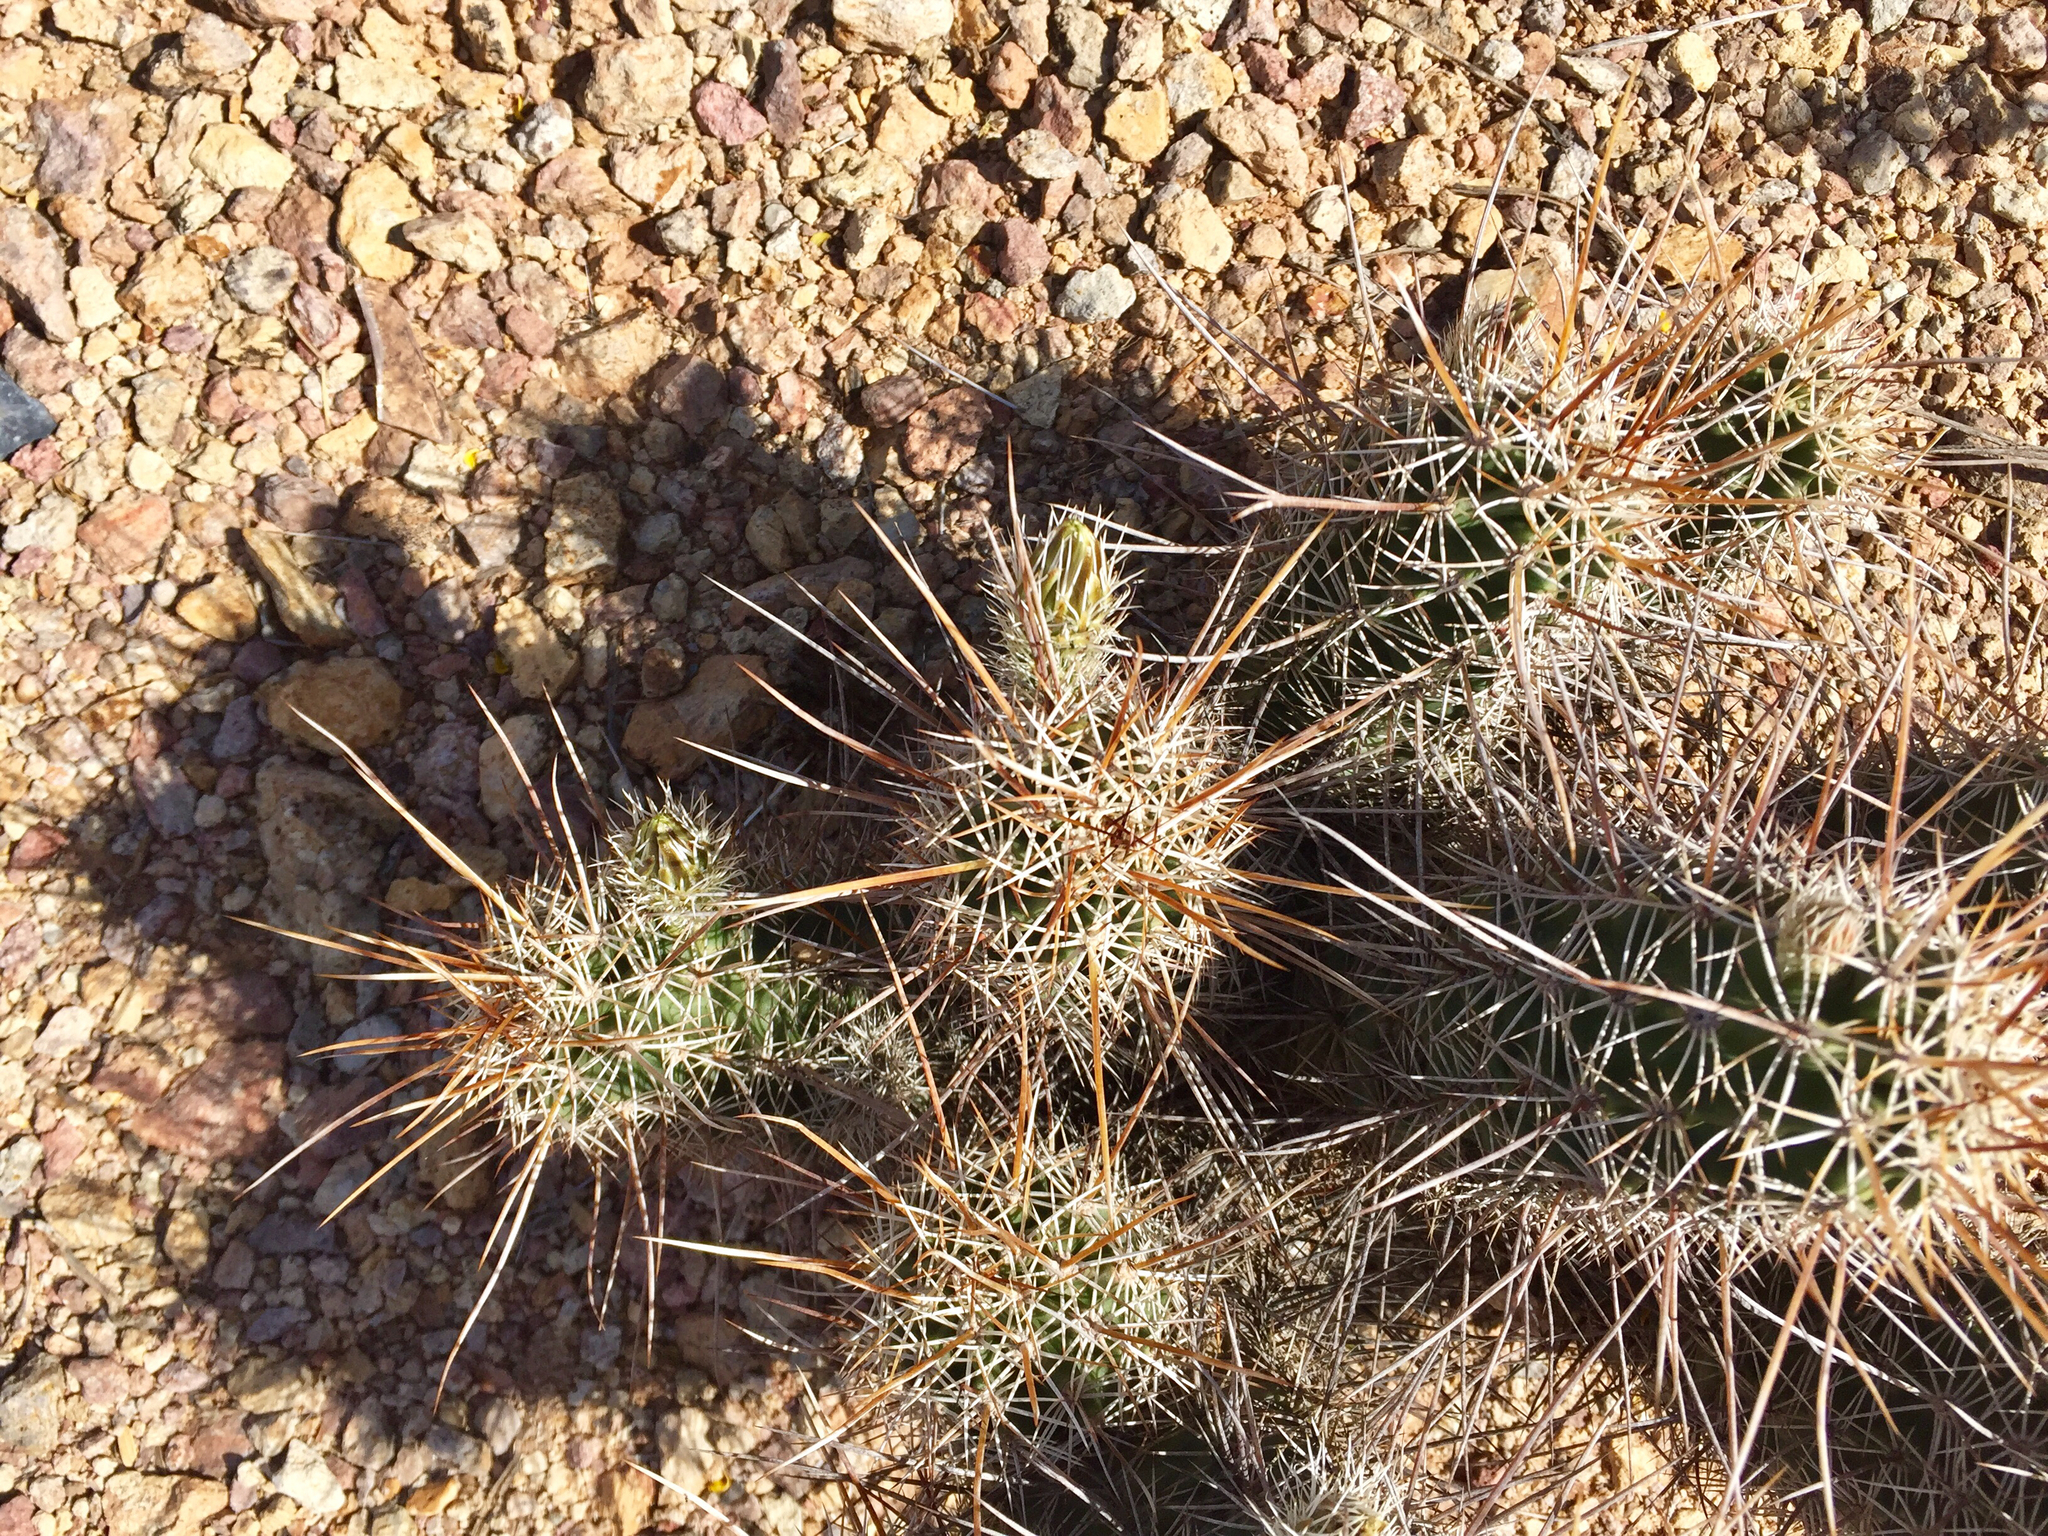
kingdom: Plantae
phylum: Tracheophyta
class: Magnoliopsida
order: Caryophyllales
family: Cactaceae
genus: Echinocereus
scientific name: Echinocereus fasciculatus
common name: Bundle hedgehog
